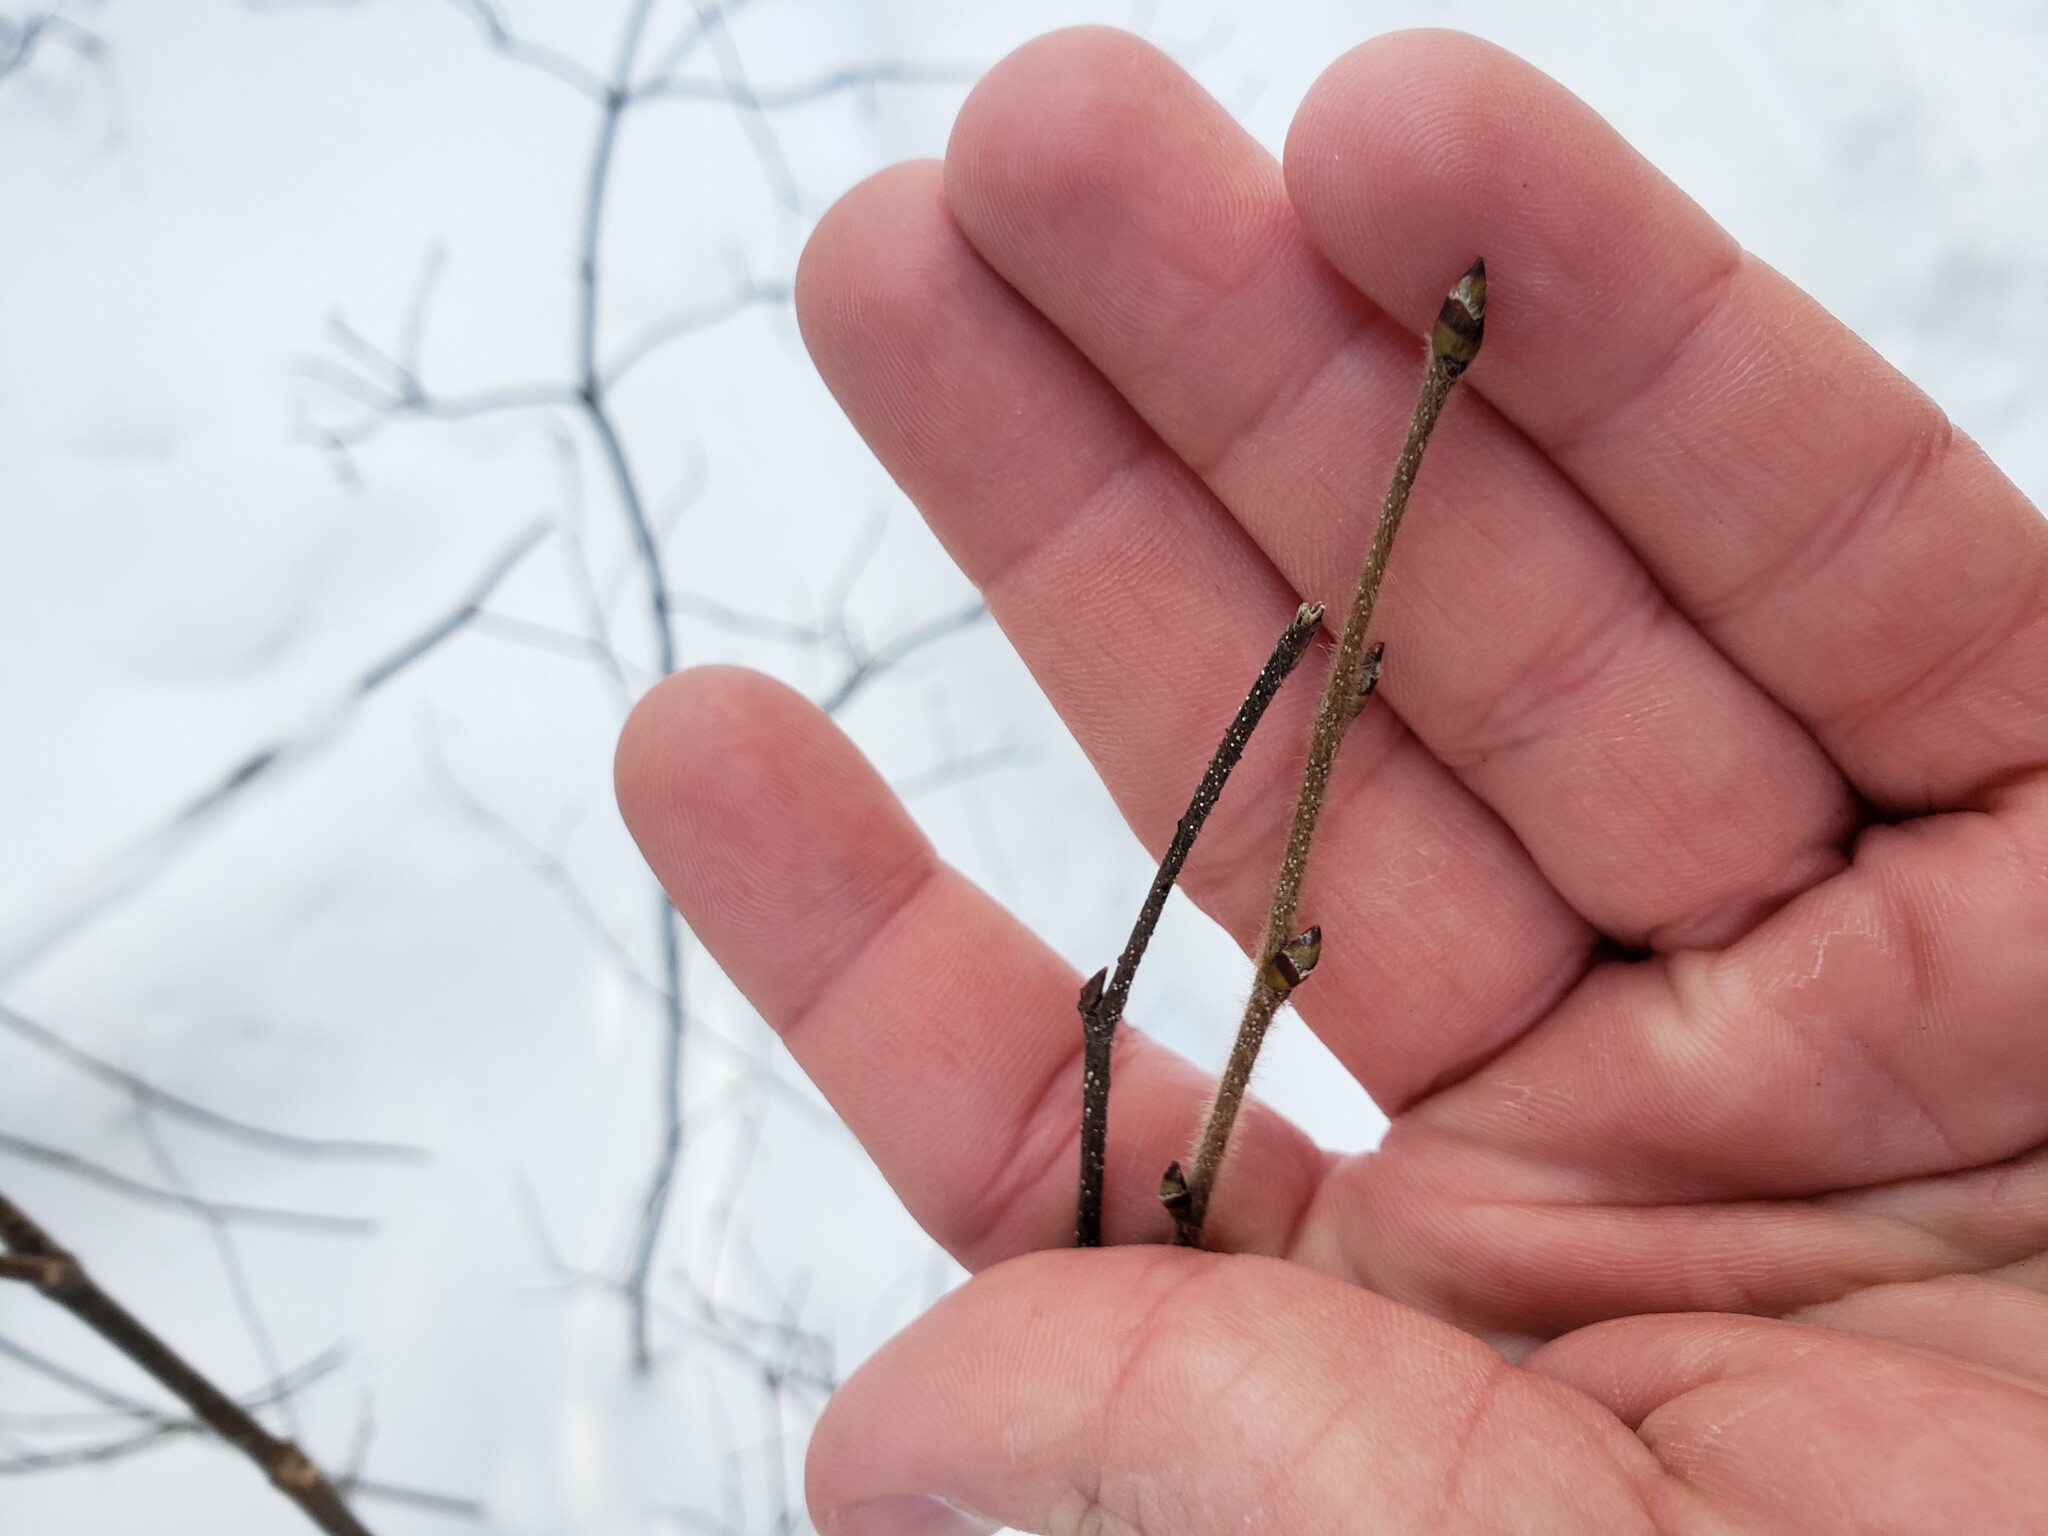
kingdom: Plantae
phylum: Tracheophyta
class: Magnoliopsida
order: Fagales
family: Betulaceae
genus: Betula
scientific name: Betula papyrifera
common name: Paper birch
